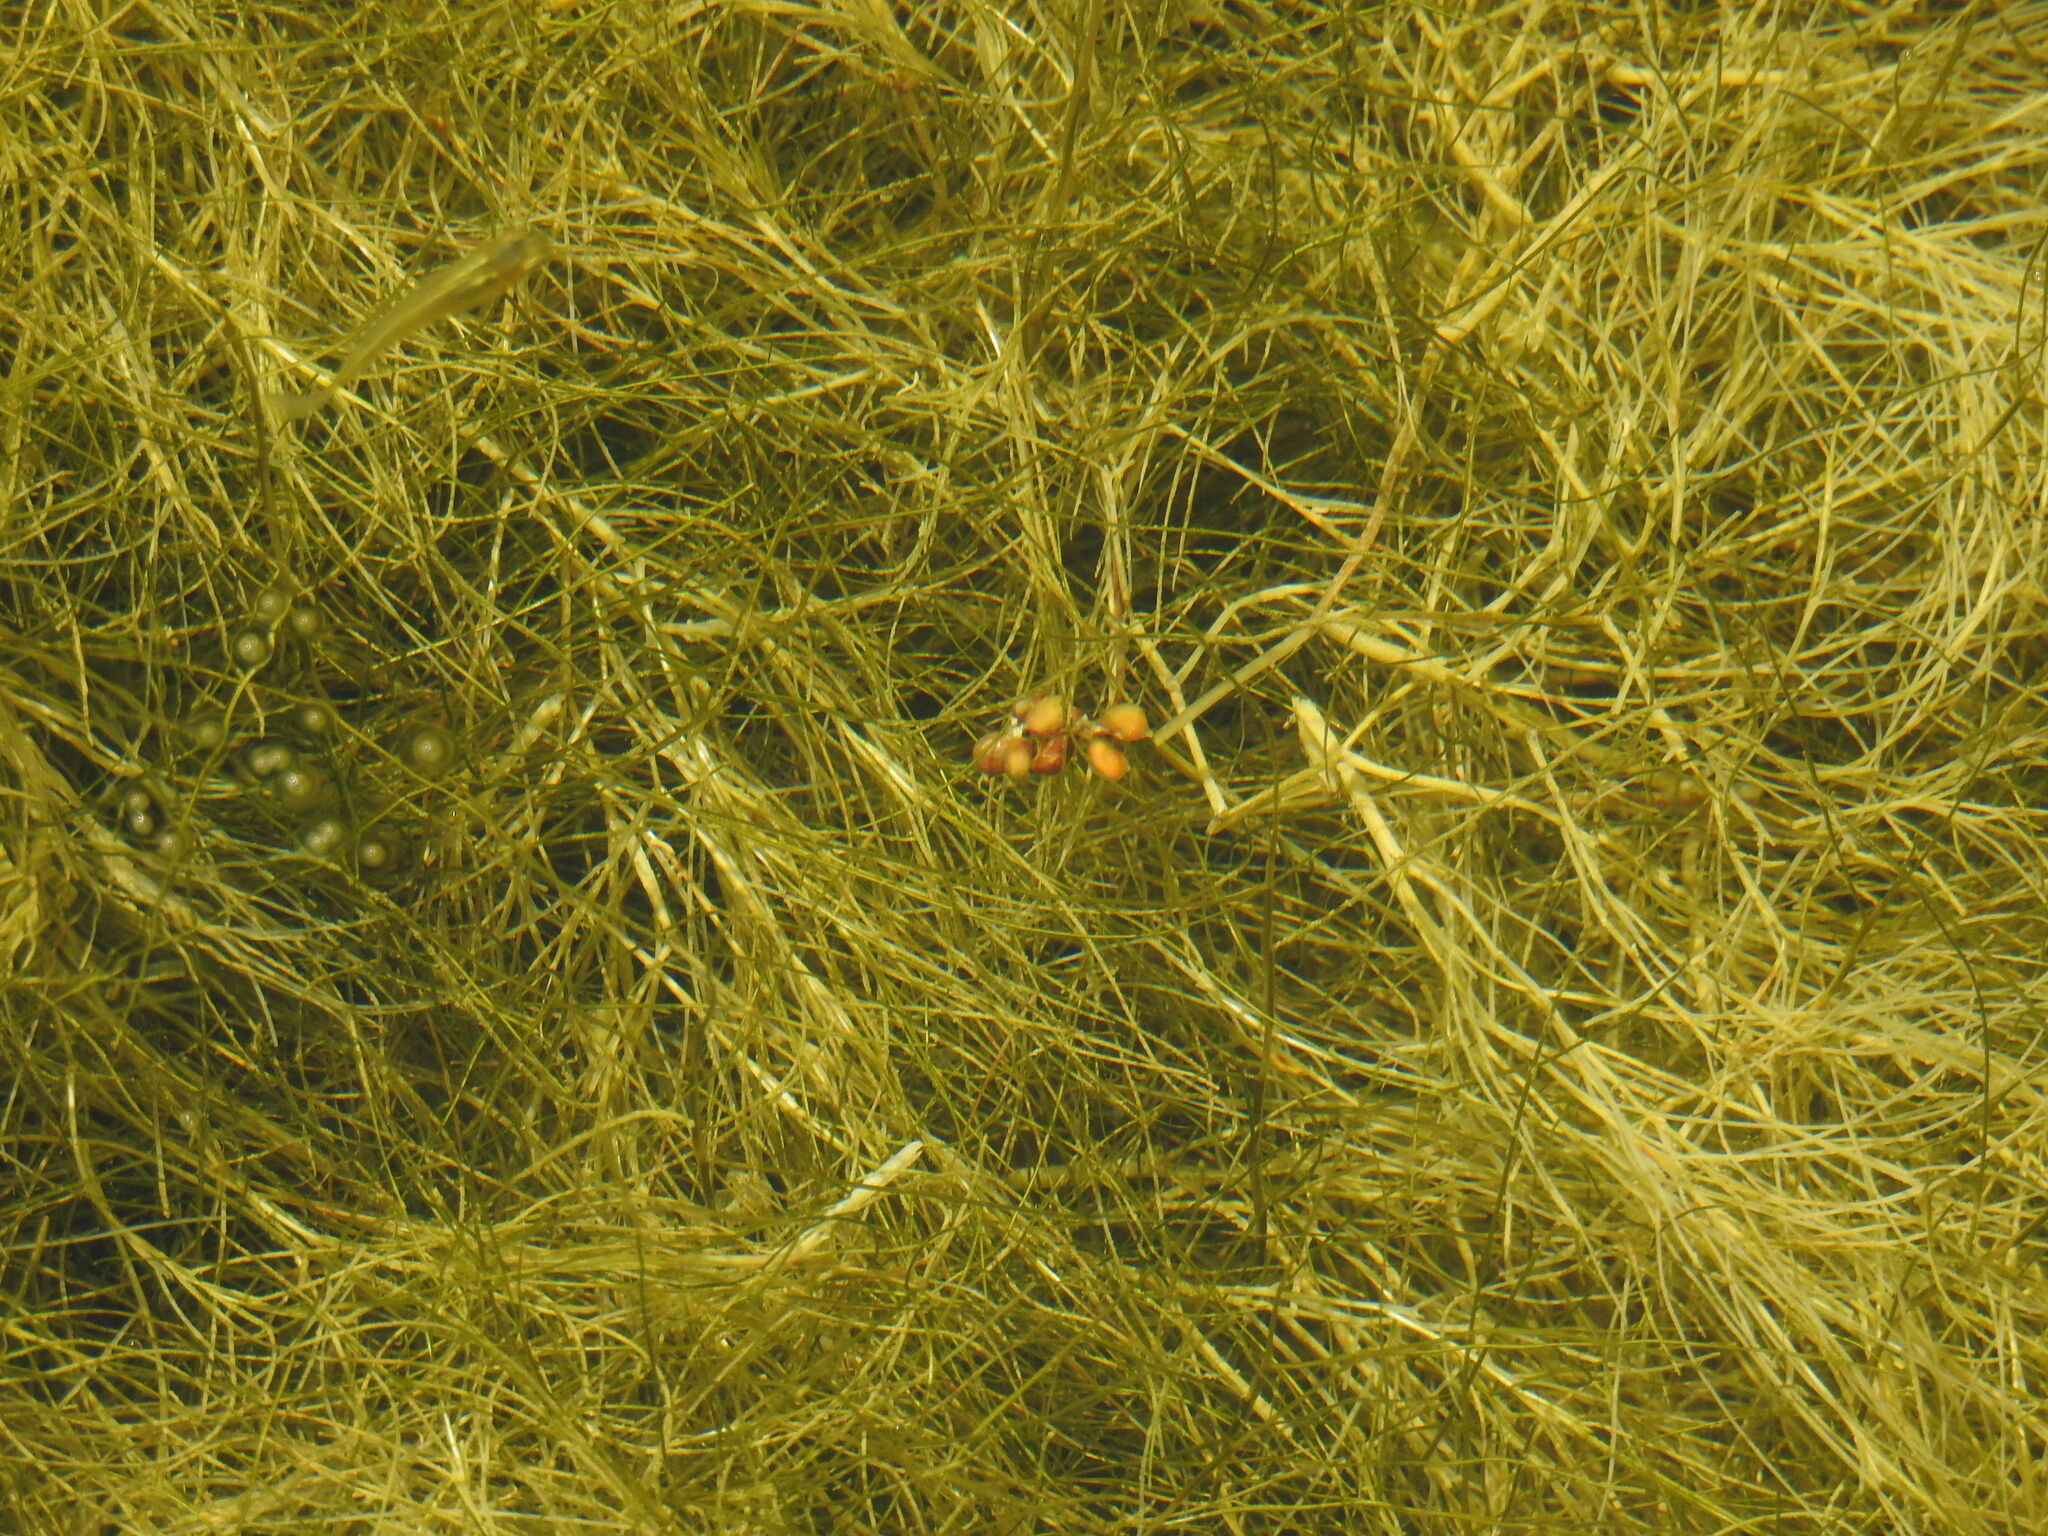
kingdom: Plantae
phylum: Tracheophyta
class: Liliopsida
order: Alismatales
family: Potamogetonaceae
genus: Stuckenia
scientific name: Stuckenia pectinata
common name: Sago pondweed
